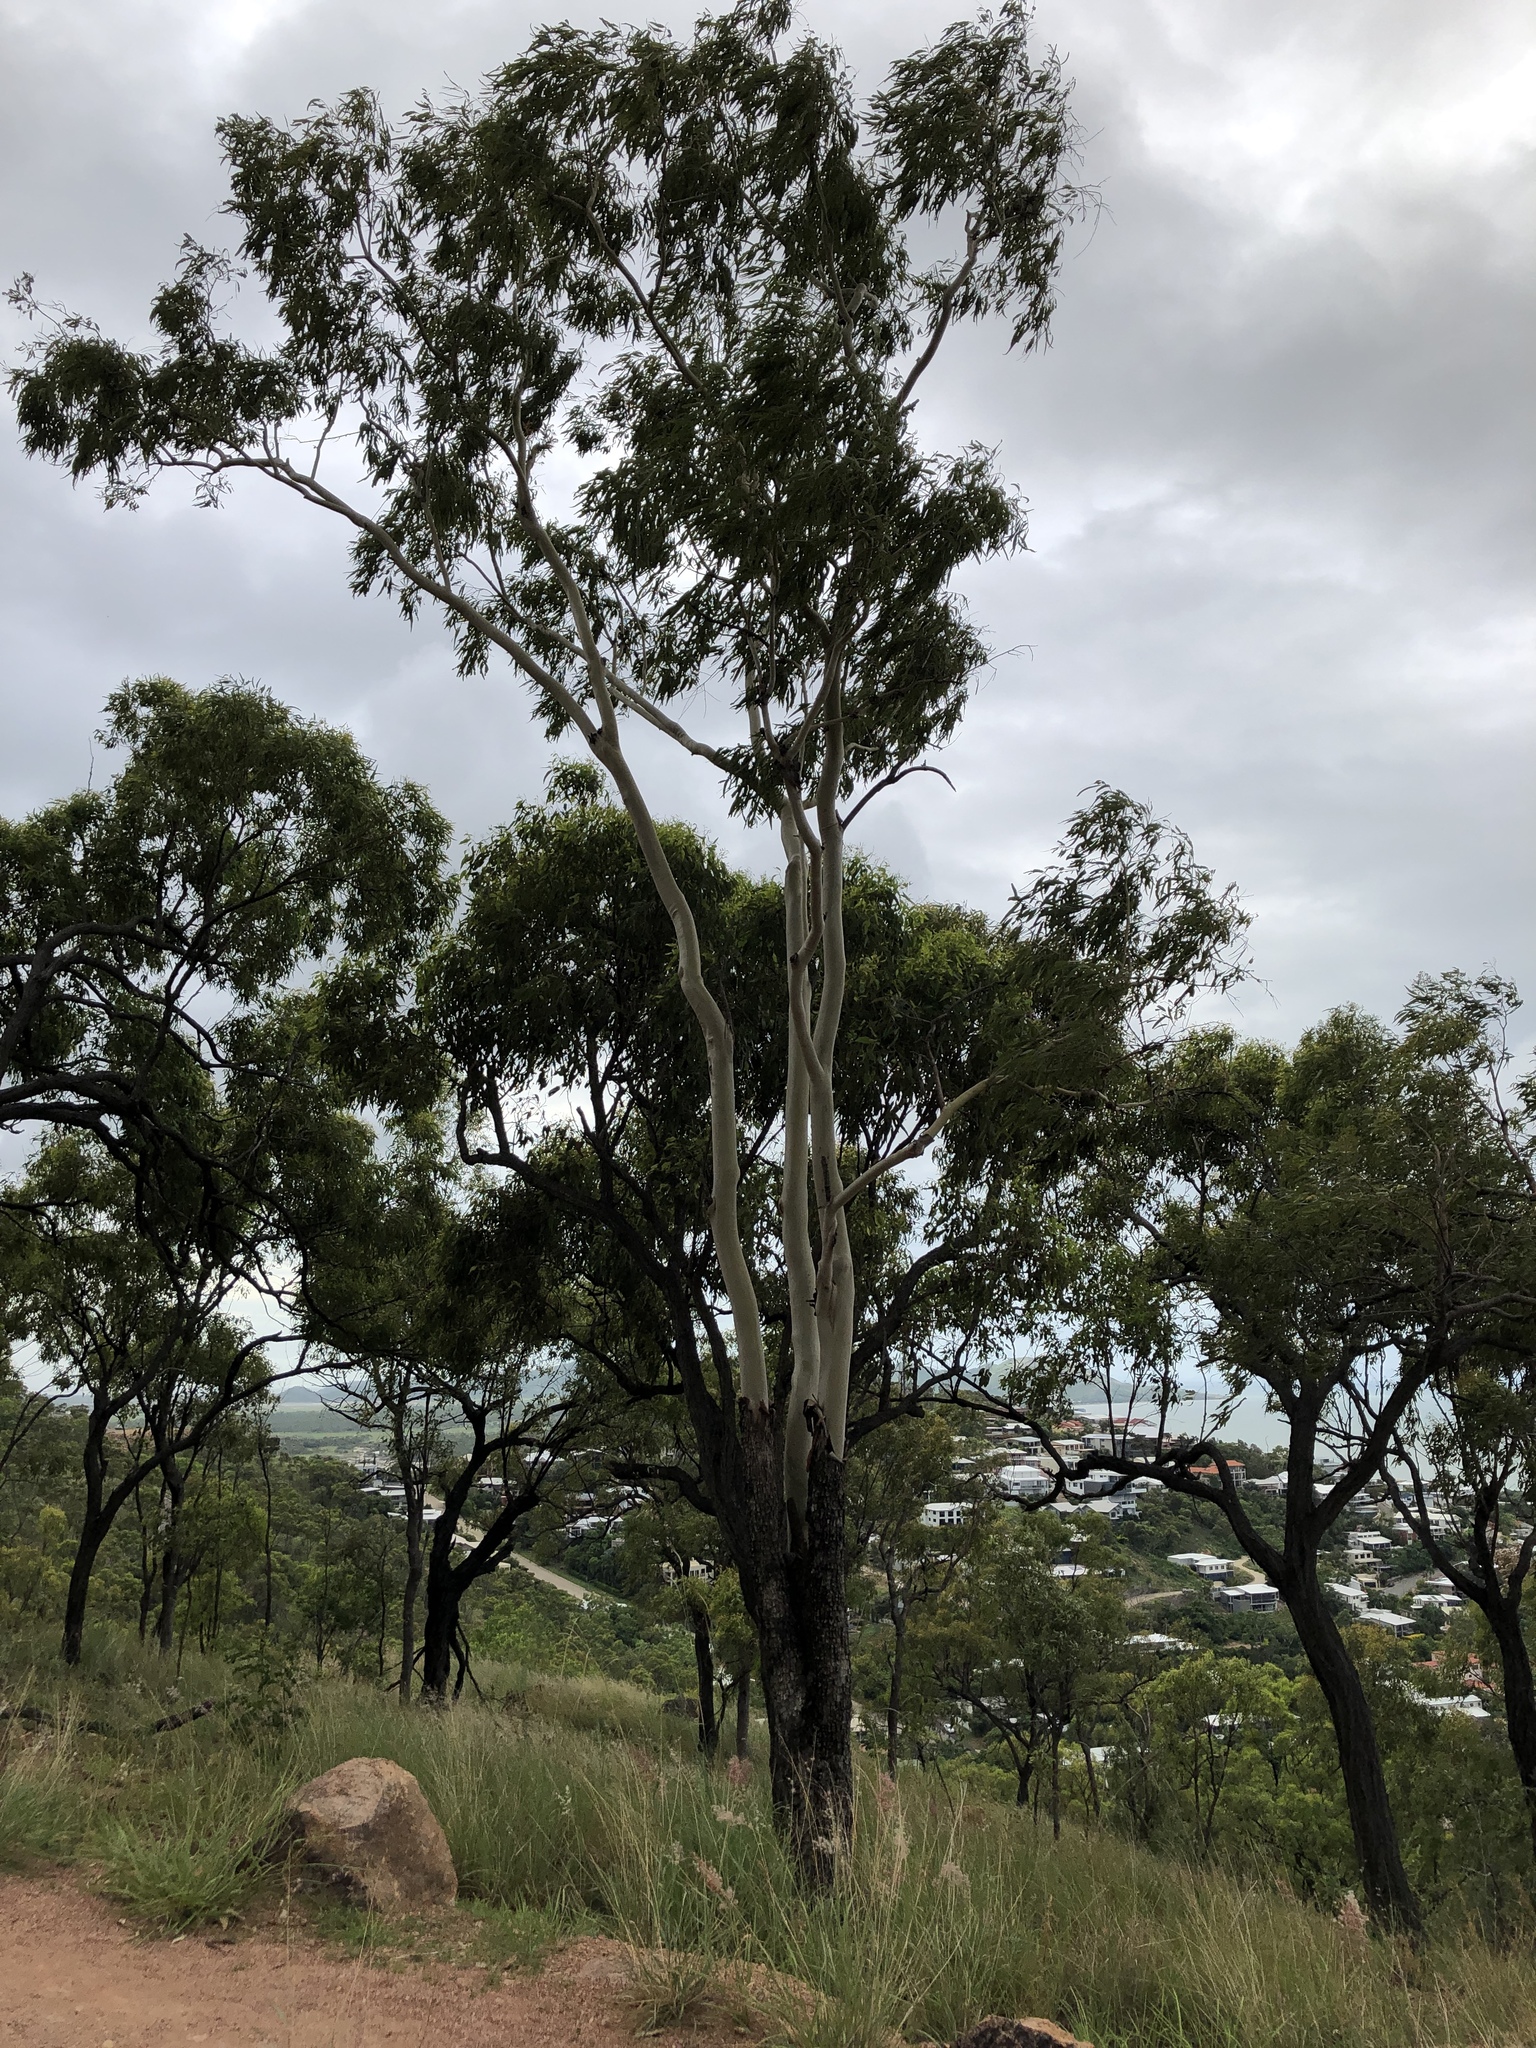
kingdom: Plantae
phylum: Tracheophyta
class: Magnoliopsida
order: Myrtales
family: Myrtaceae
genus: Corymbia
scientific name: Corymbia tessellaris
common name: Carbeen
